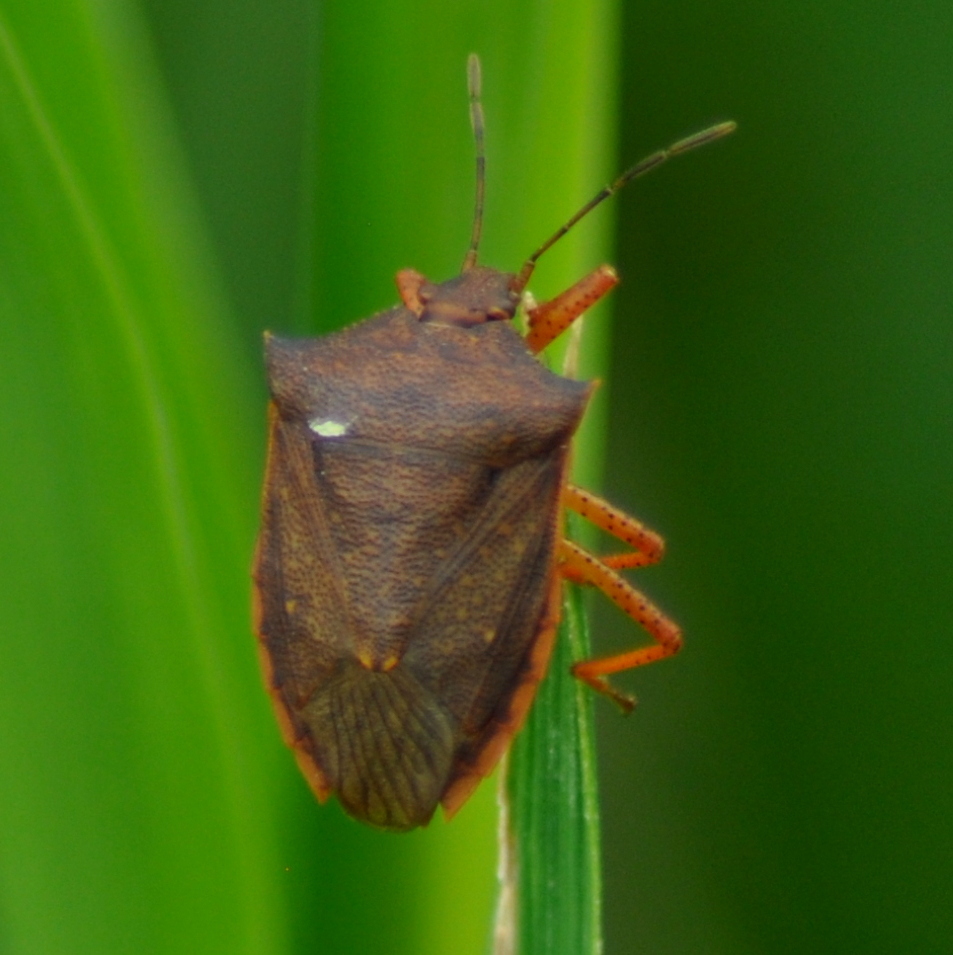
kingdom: Animalia
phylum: Arthropoda
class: Insecta
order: Hemiptera
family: Pentatomidae
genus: Euschistus
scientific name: Euschistus
